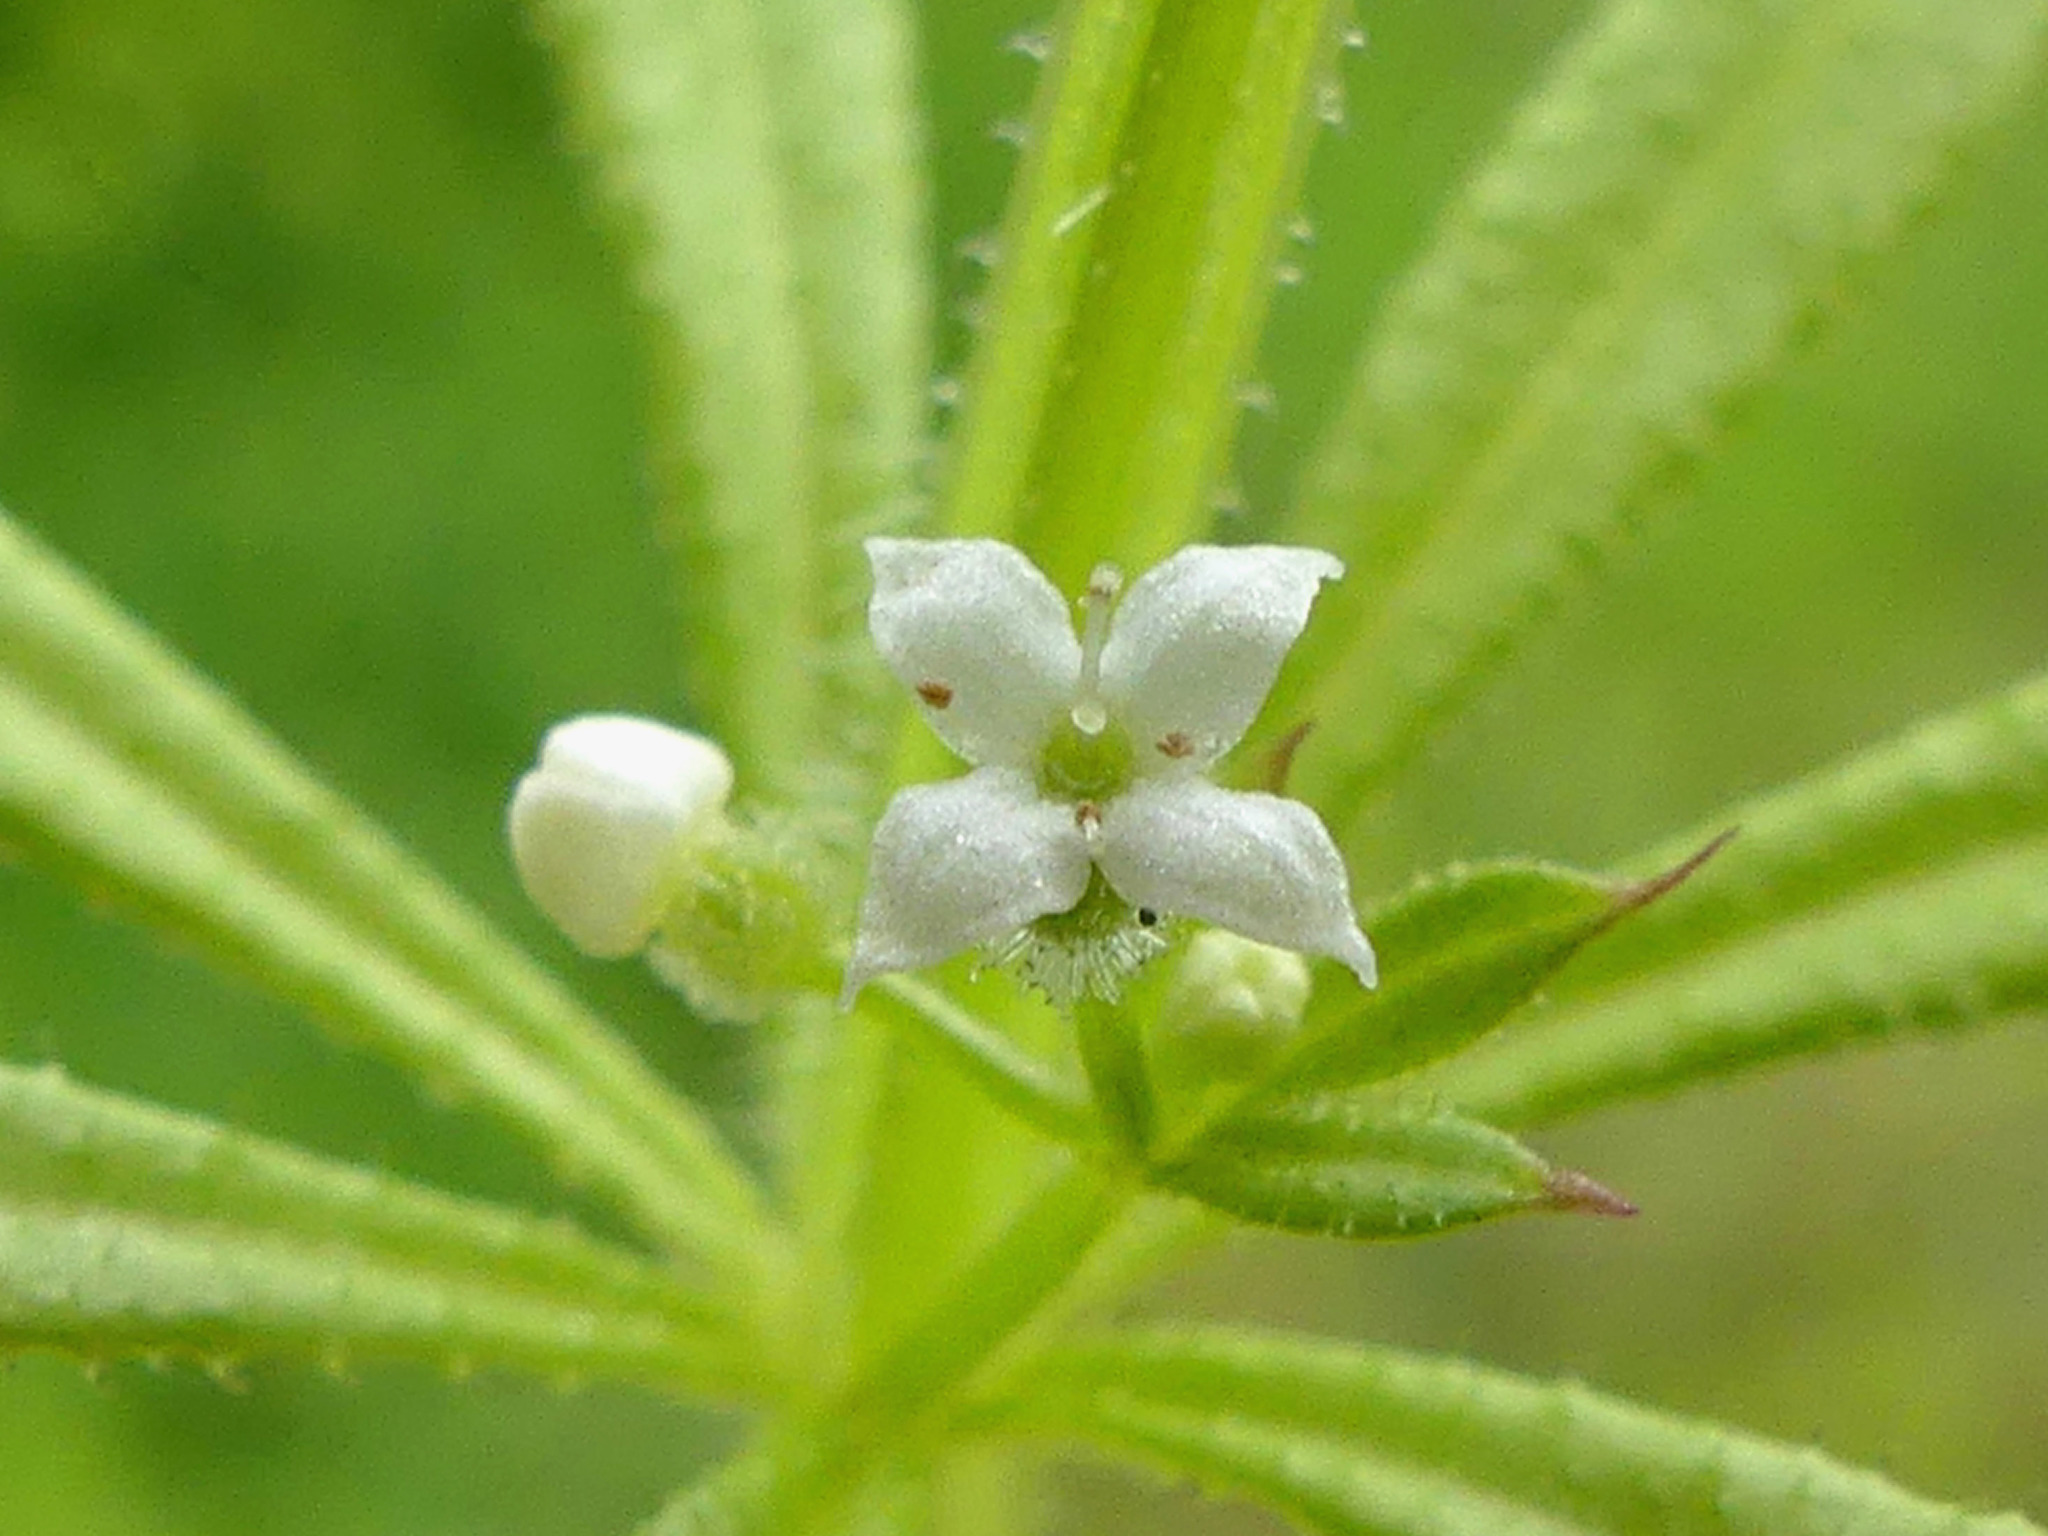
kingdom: Plantae
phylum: Tracheophyta
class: Magnoliopsida
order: Gentianales
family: Rubiaceae
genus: Galium
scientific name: Galium aparine
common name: Cleavers
